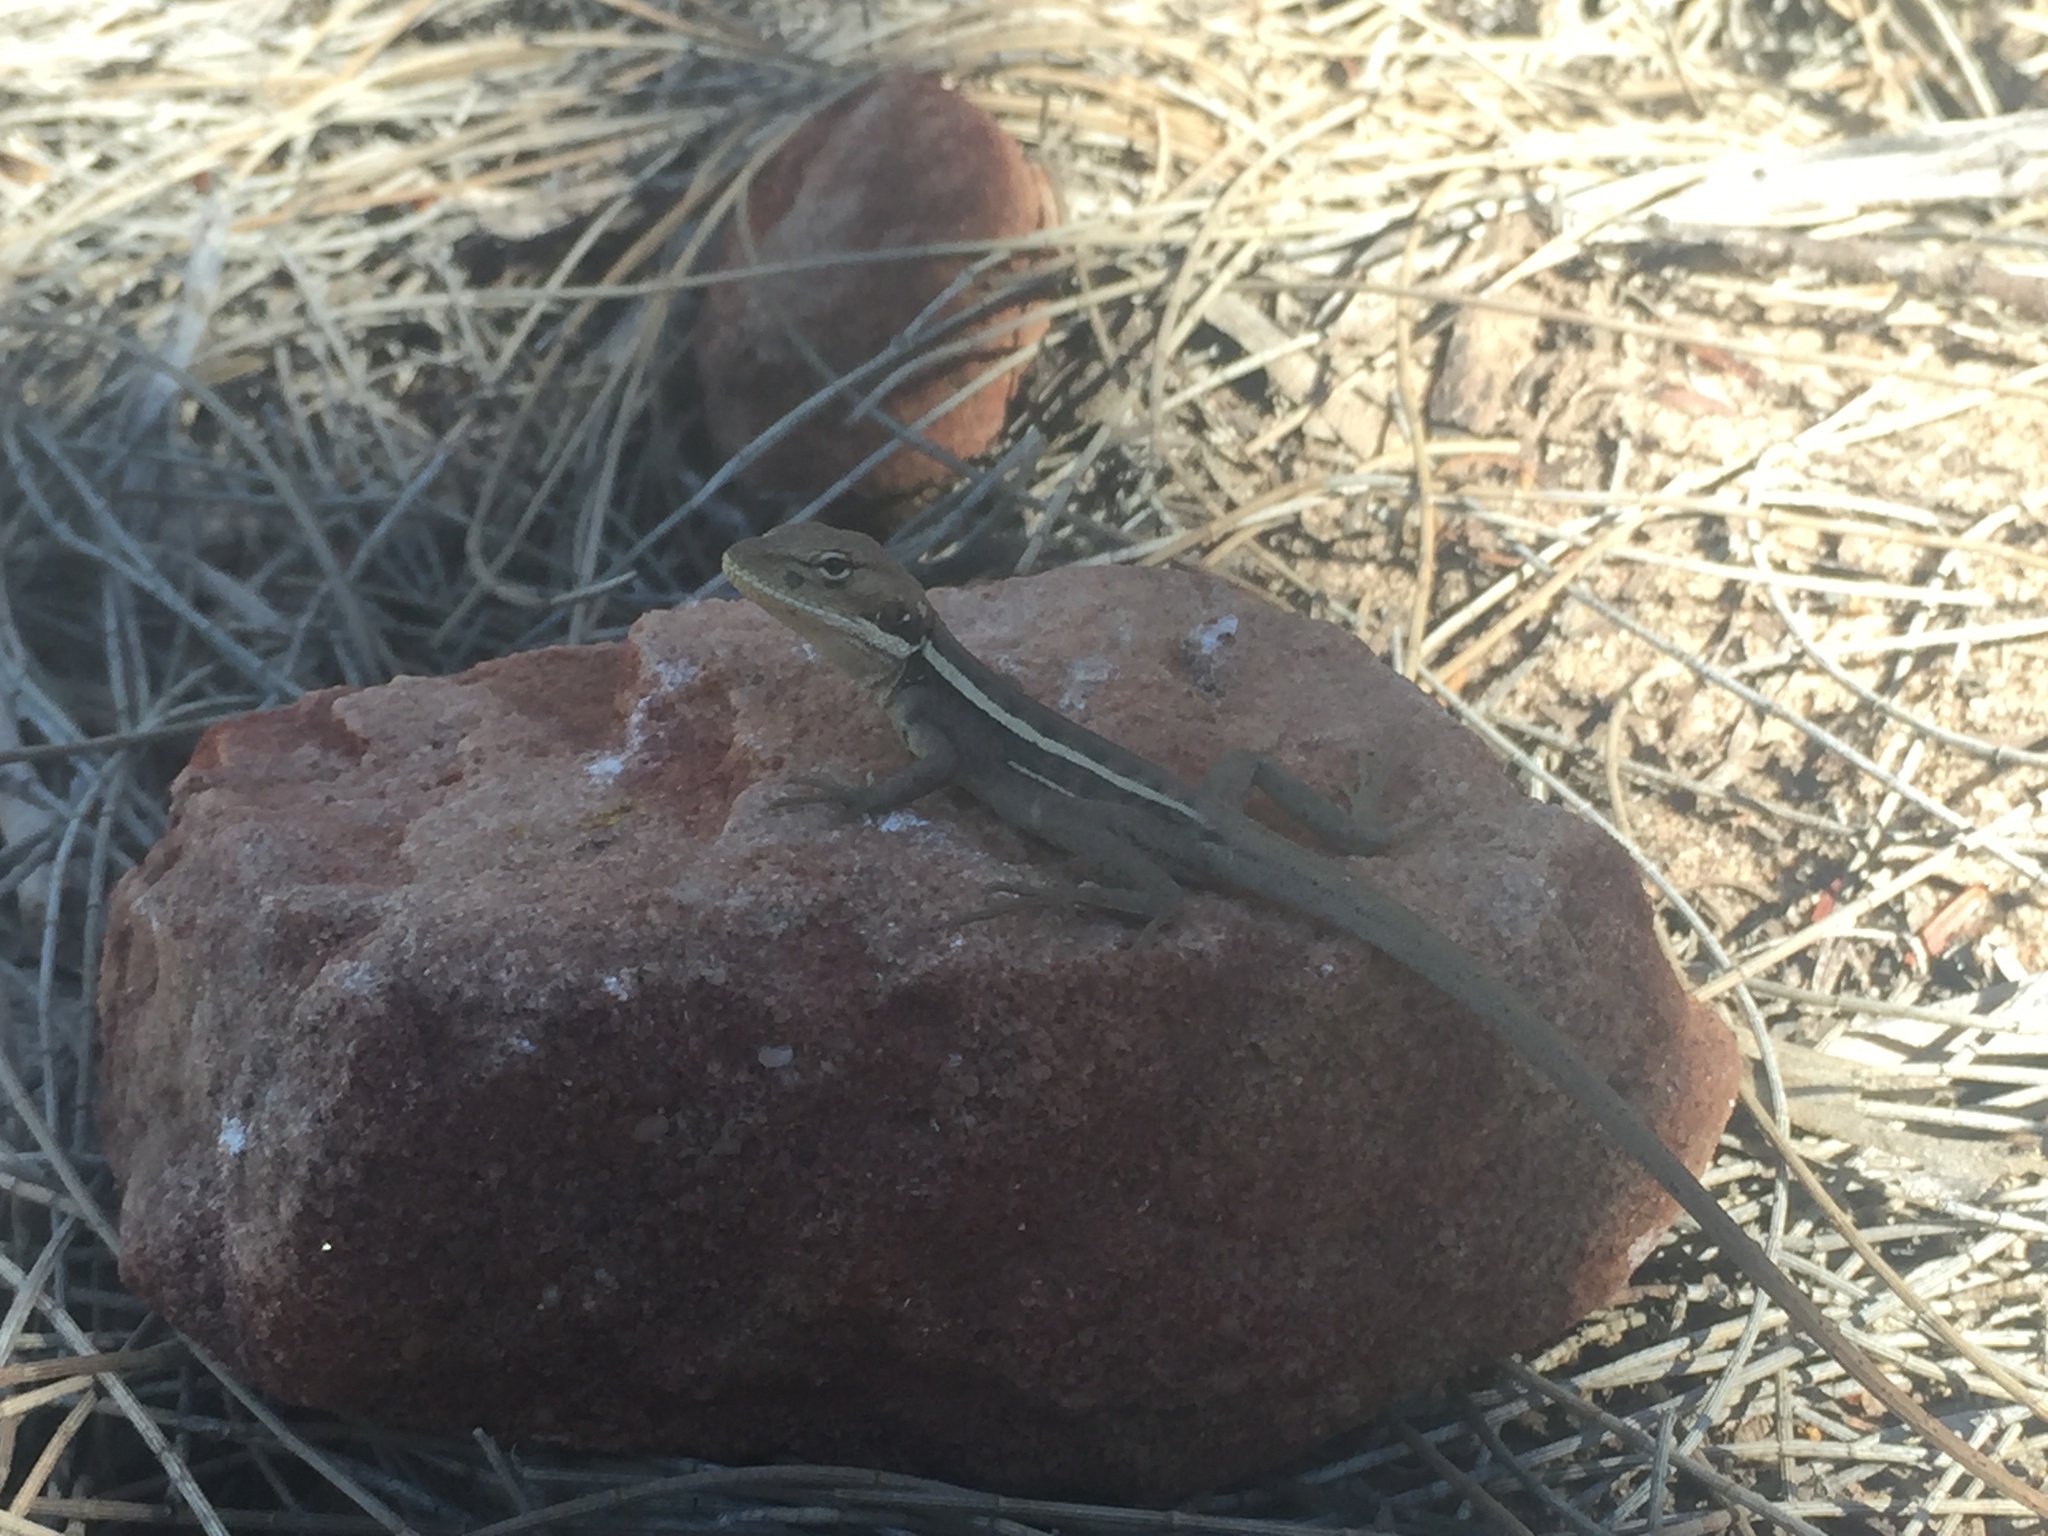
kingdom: Animalia
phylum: Chordata
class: Squamata
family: Agamidae
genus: Gowidon
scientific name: Gowidon longirostris
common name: Long-nosed water dragon
